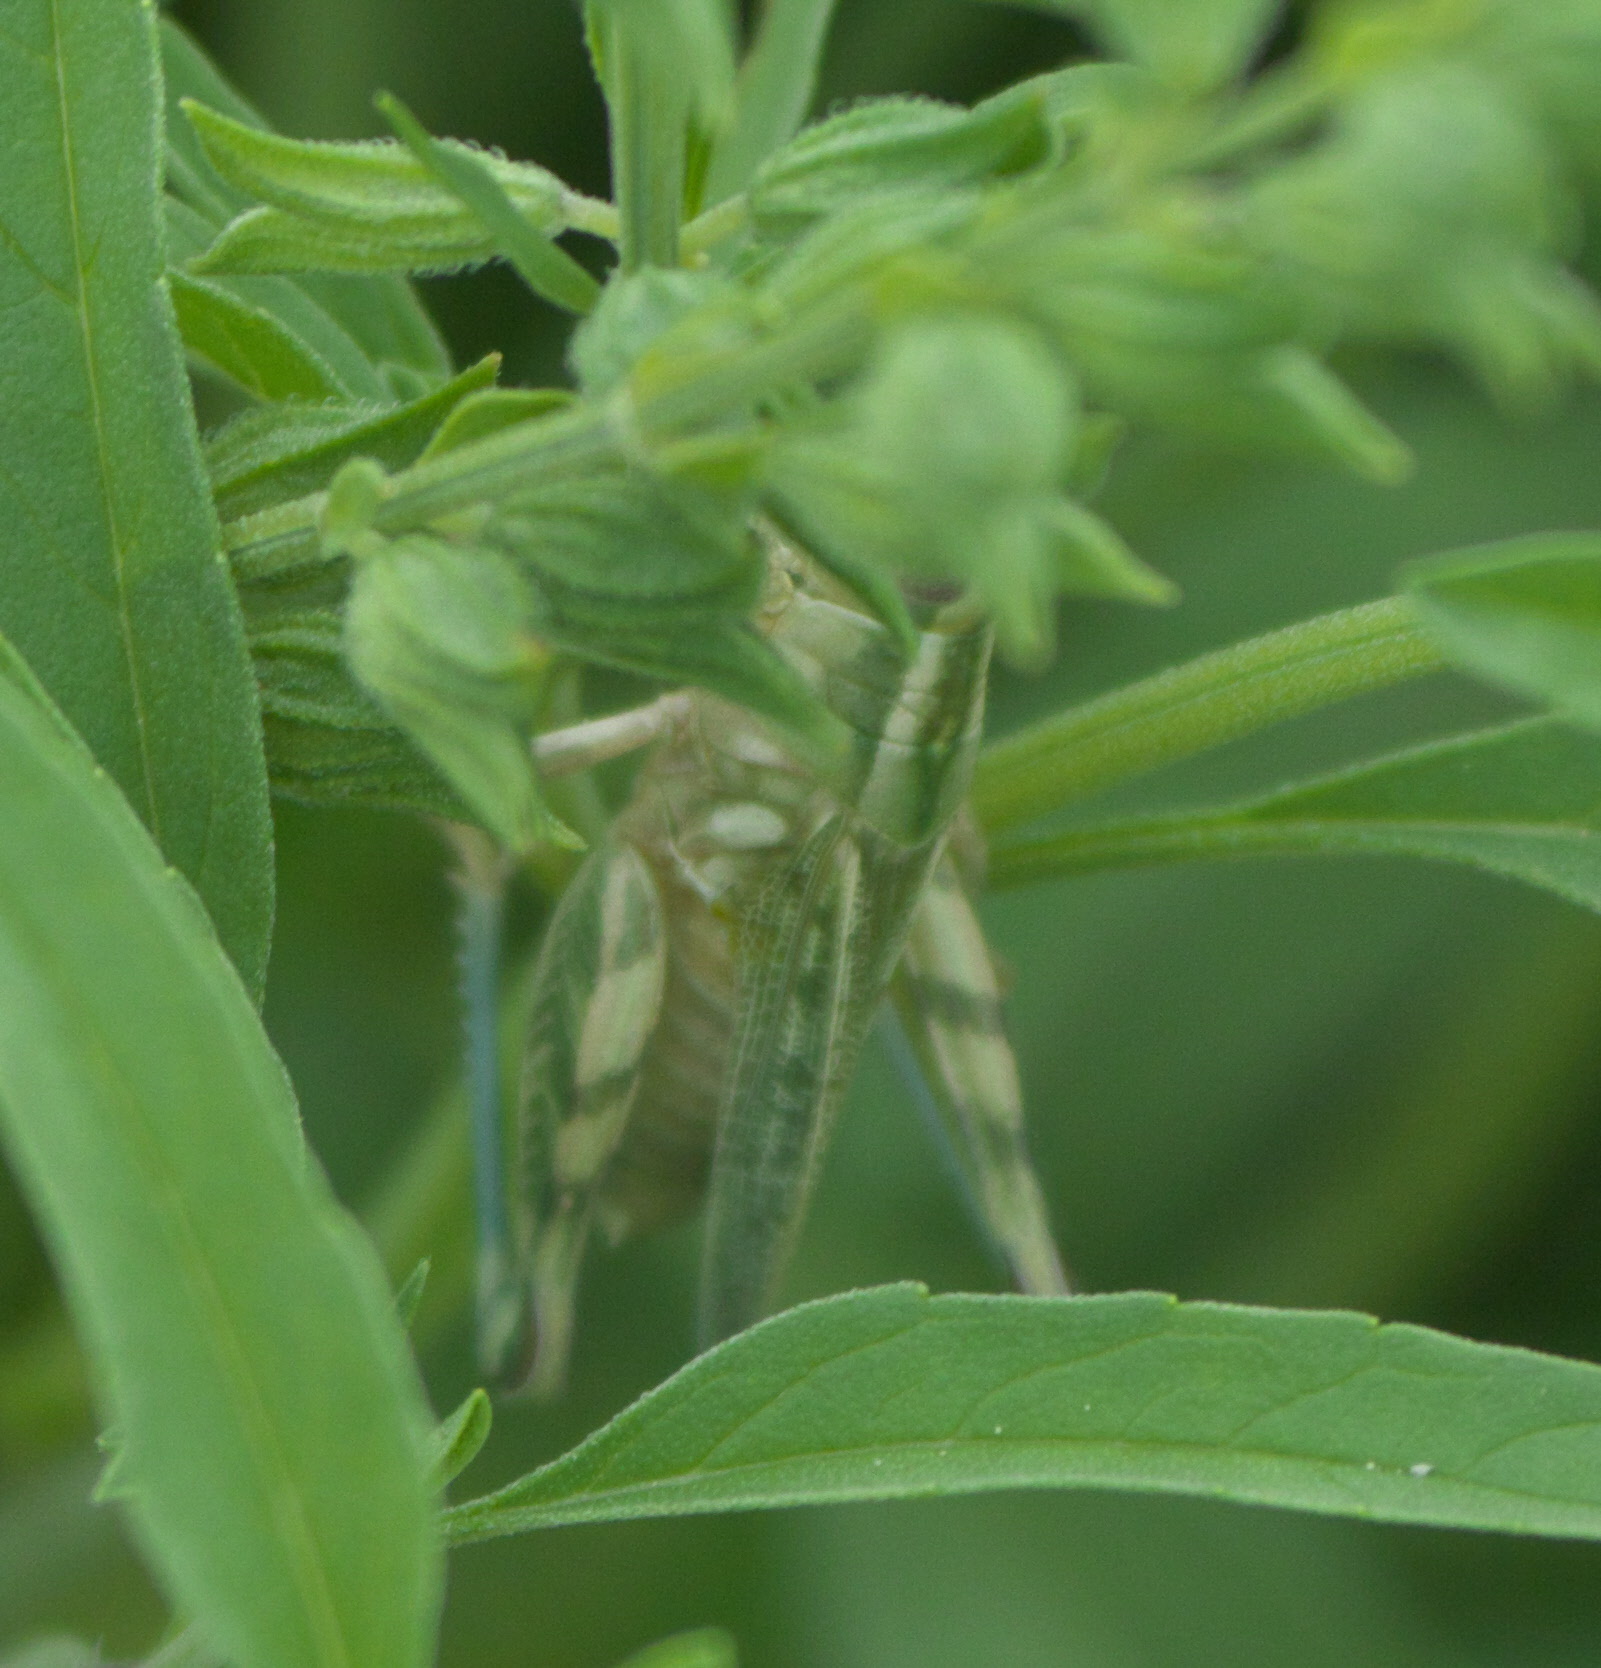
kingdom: Animalia
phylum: Arthropoda
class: Insecta
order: Orthoptera
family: Acrididae
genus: Aeoloplides
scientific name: Aeoloplides turnbulli
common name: Russianthistle grasshopper
